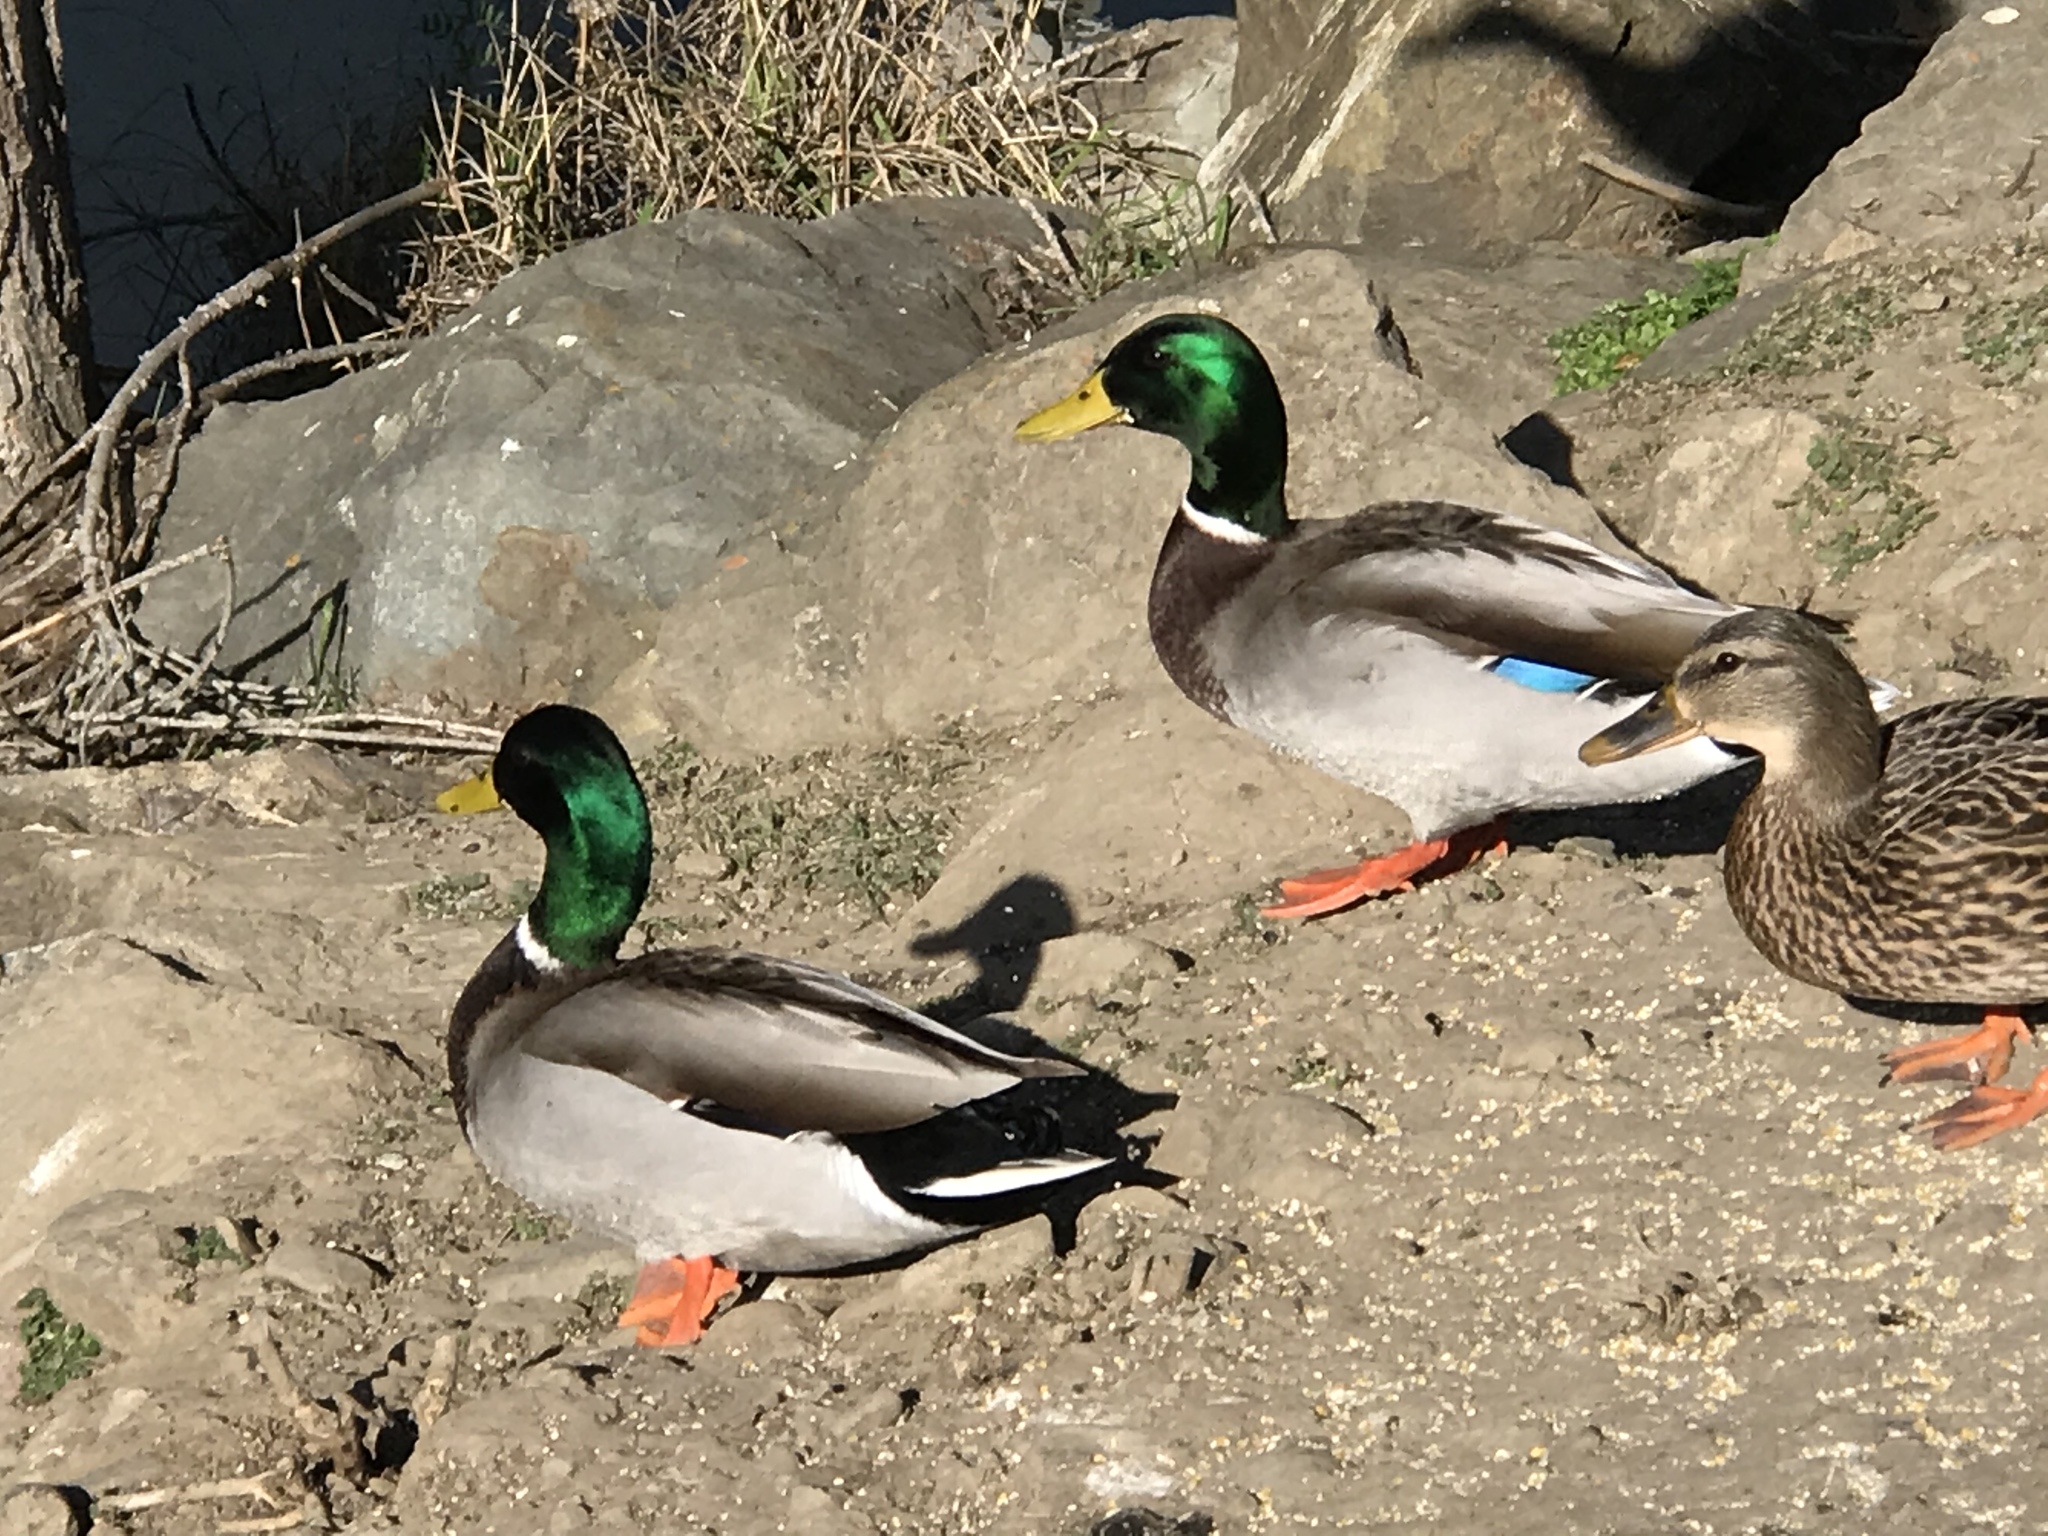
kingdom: Animalia
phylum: Chordata
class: Aves
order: Anseriformes
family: Anatidae
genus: Anas
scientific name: Anas platyrhynchos
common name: Mallard
